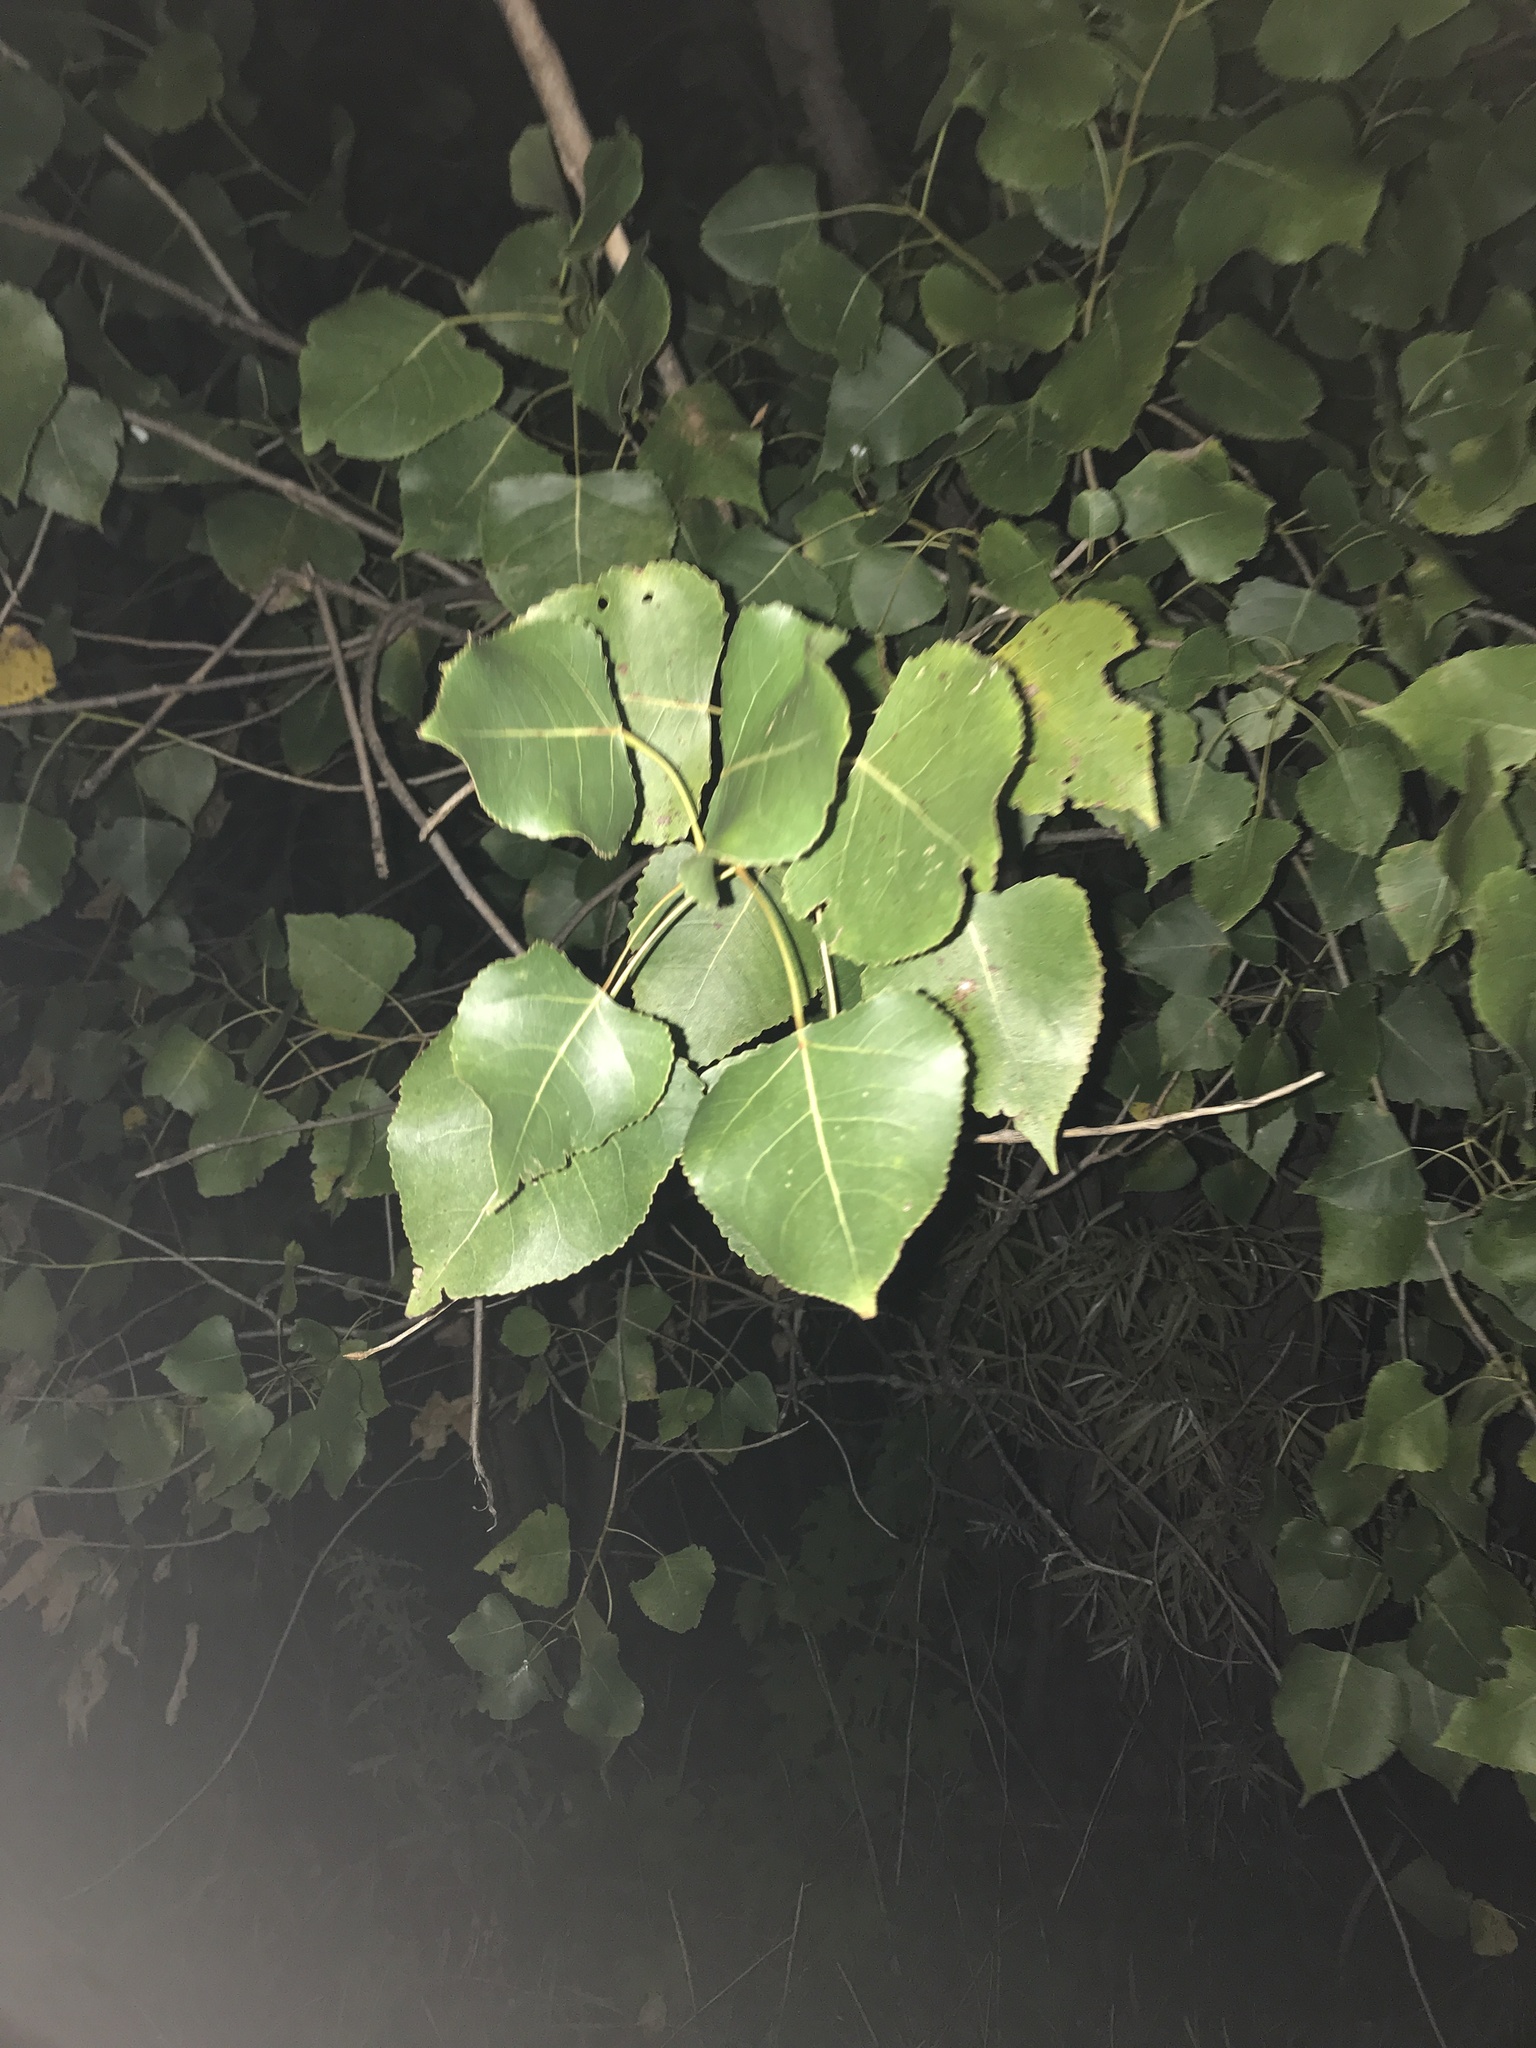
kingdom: Plantae
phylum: Tracheophyta
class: Magnoliopsida
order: Malpighiales
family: Salicaceae
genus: Populus
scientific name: Populus deltoides
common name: Eastern cottonwood
